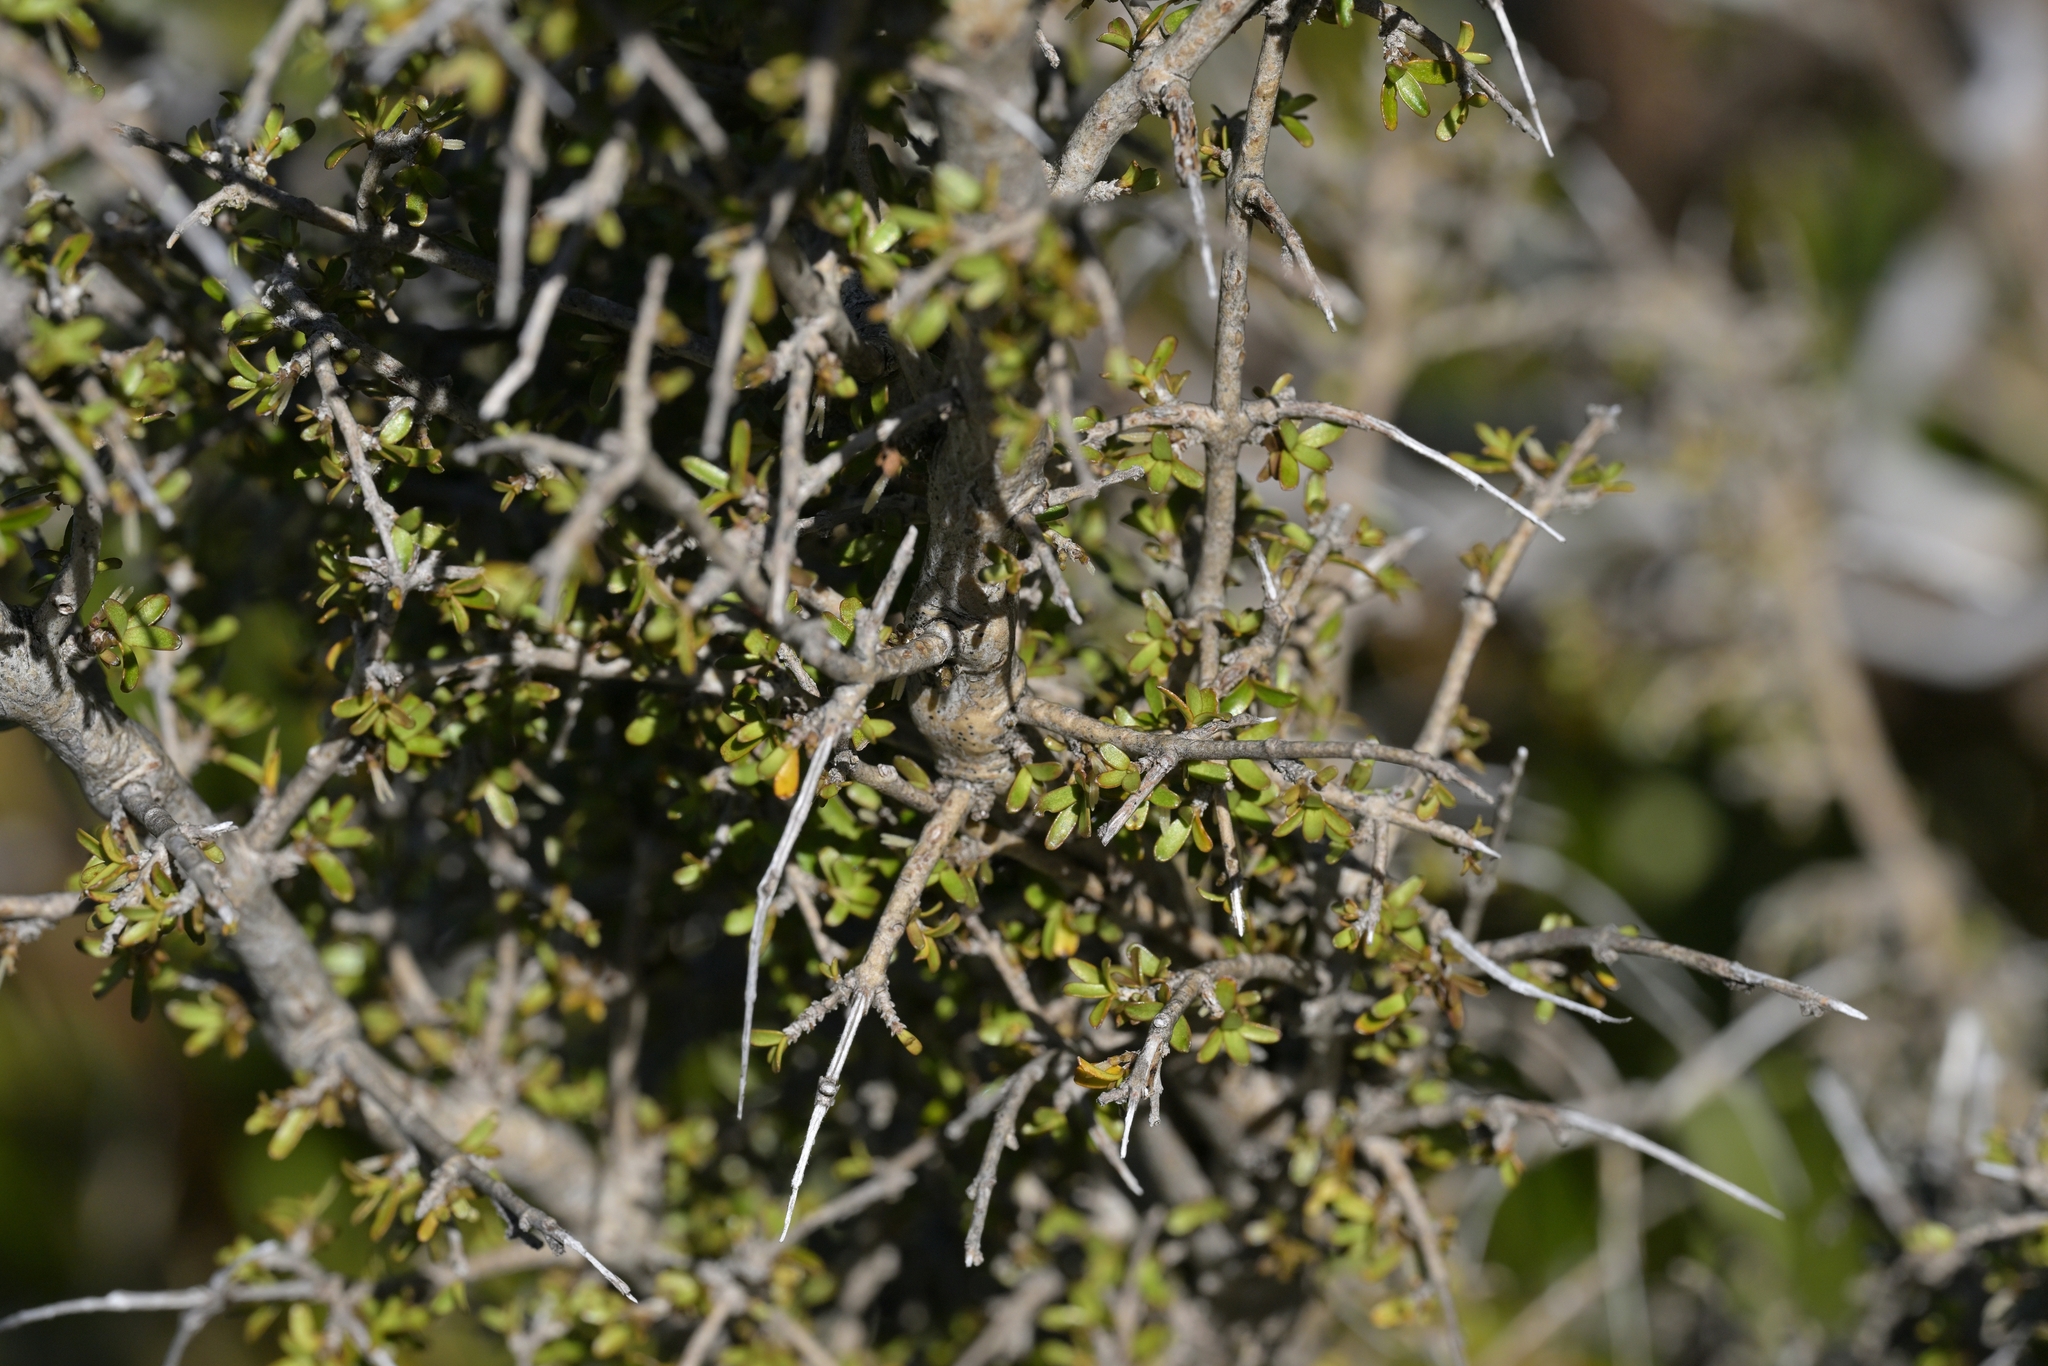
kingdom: Plantae
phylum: Tracheophyta
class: Magnoliopsida
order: Gentianales
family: Rubiaceae
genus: Coprosma
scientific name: Coprosma decurva
